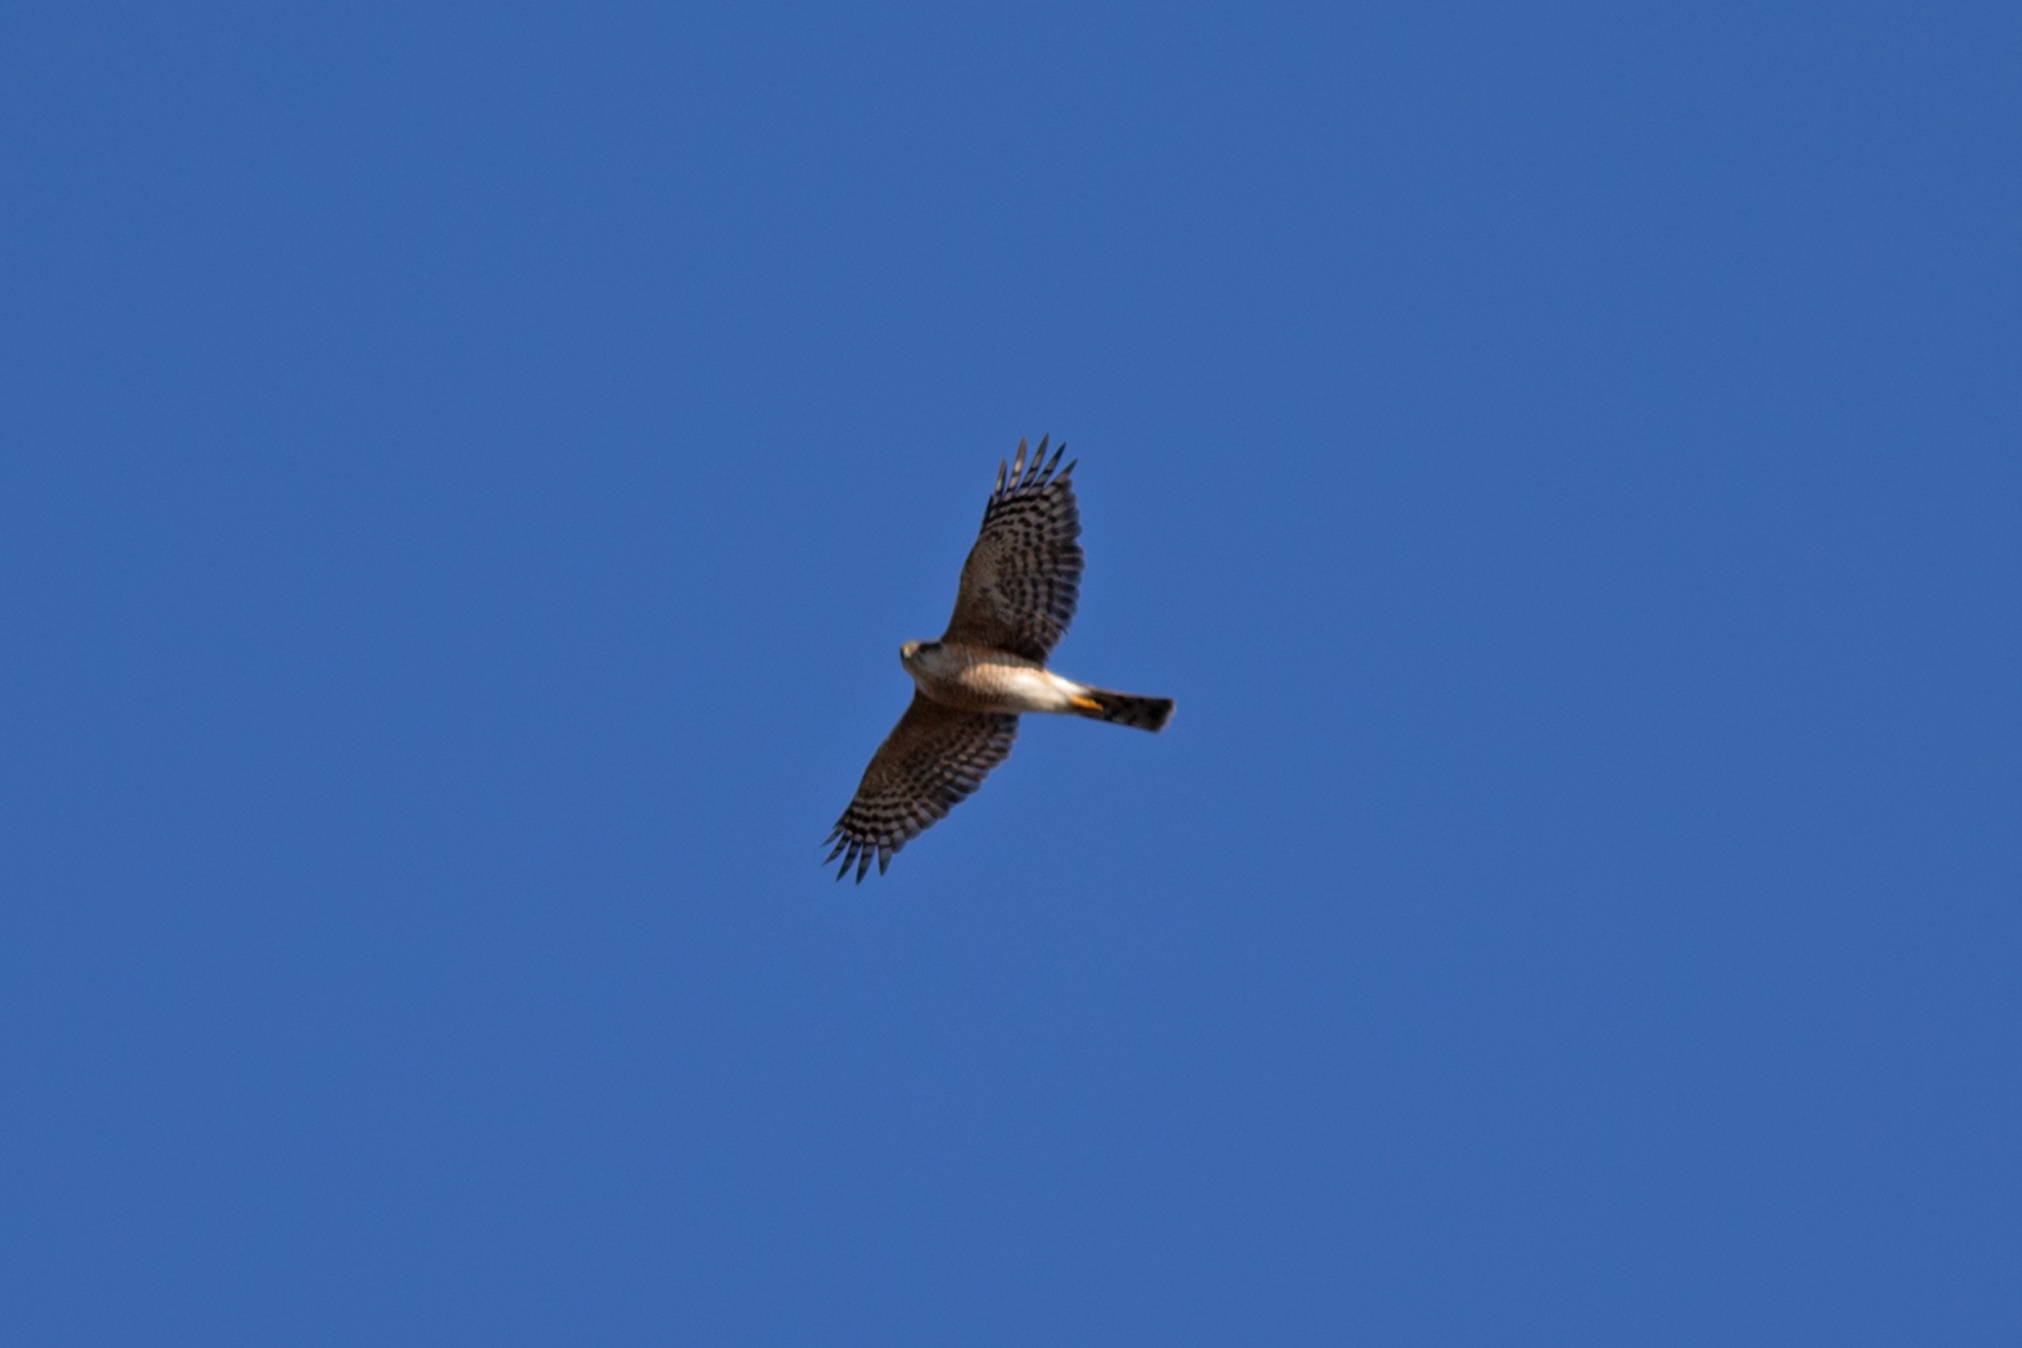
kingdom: Animalia
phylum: Chordata
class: Aves
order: Accipitriformes
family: Accipitridae
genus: Accipiter
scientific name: Accipiter striatus
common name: Sharp-shinned hawk
